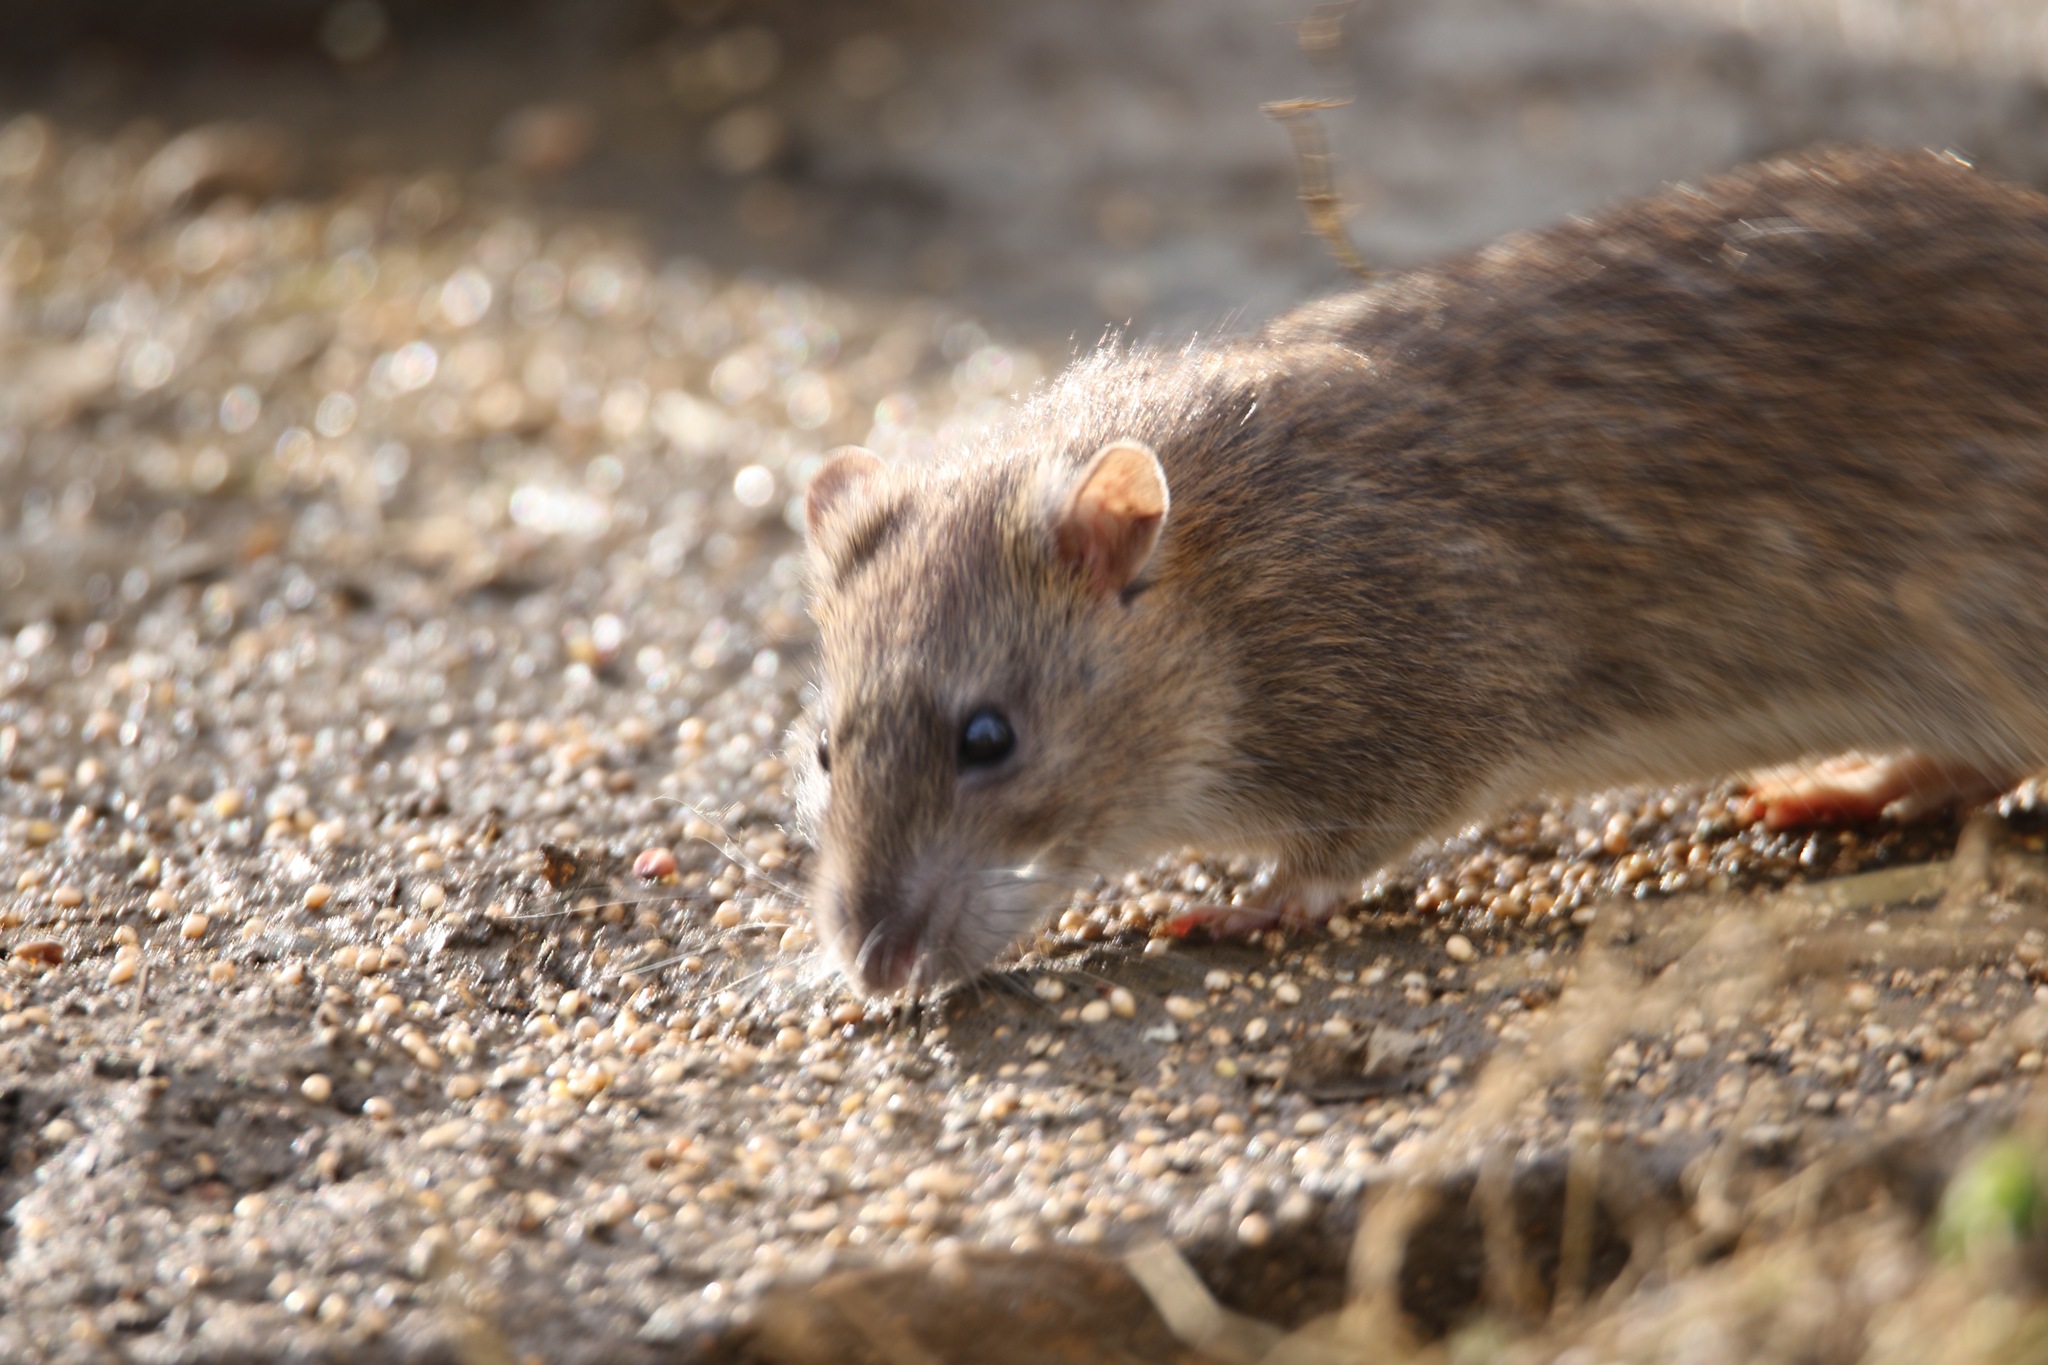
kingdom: Animalia
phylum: Chordata
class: Mammalia
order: Rodentia
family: Muridae
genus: Rattus
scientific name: Rattus norvegicus
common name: Brown rat
